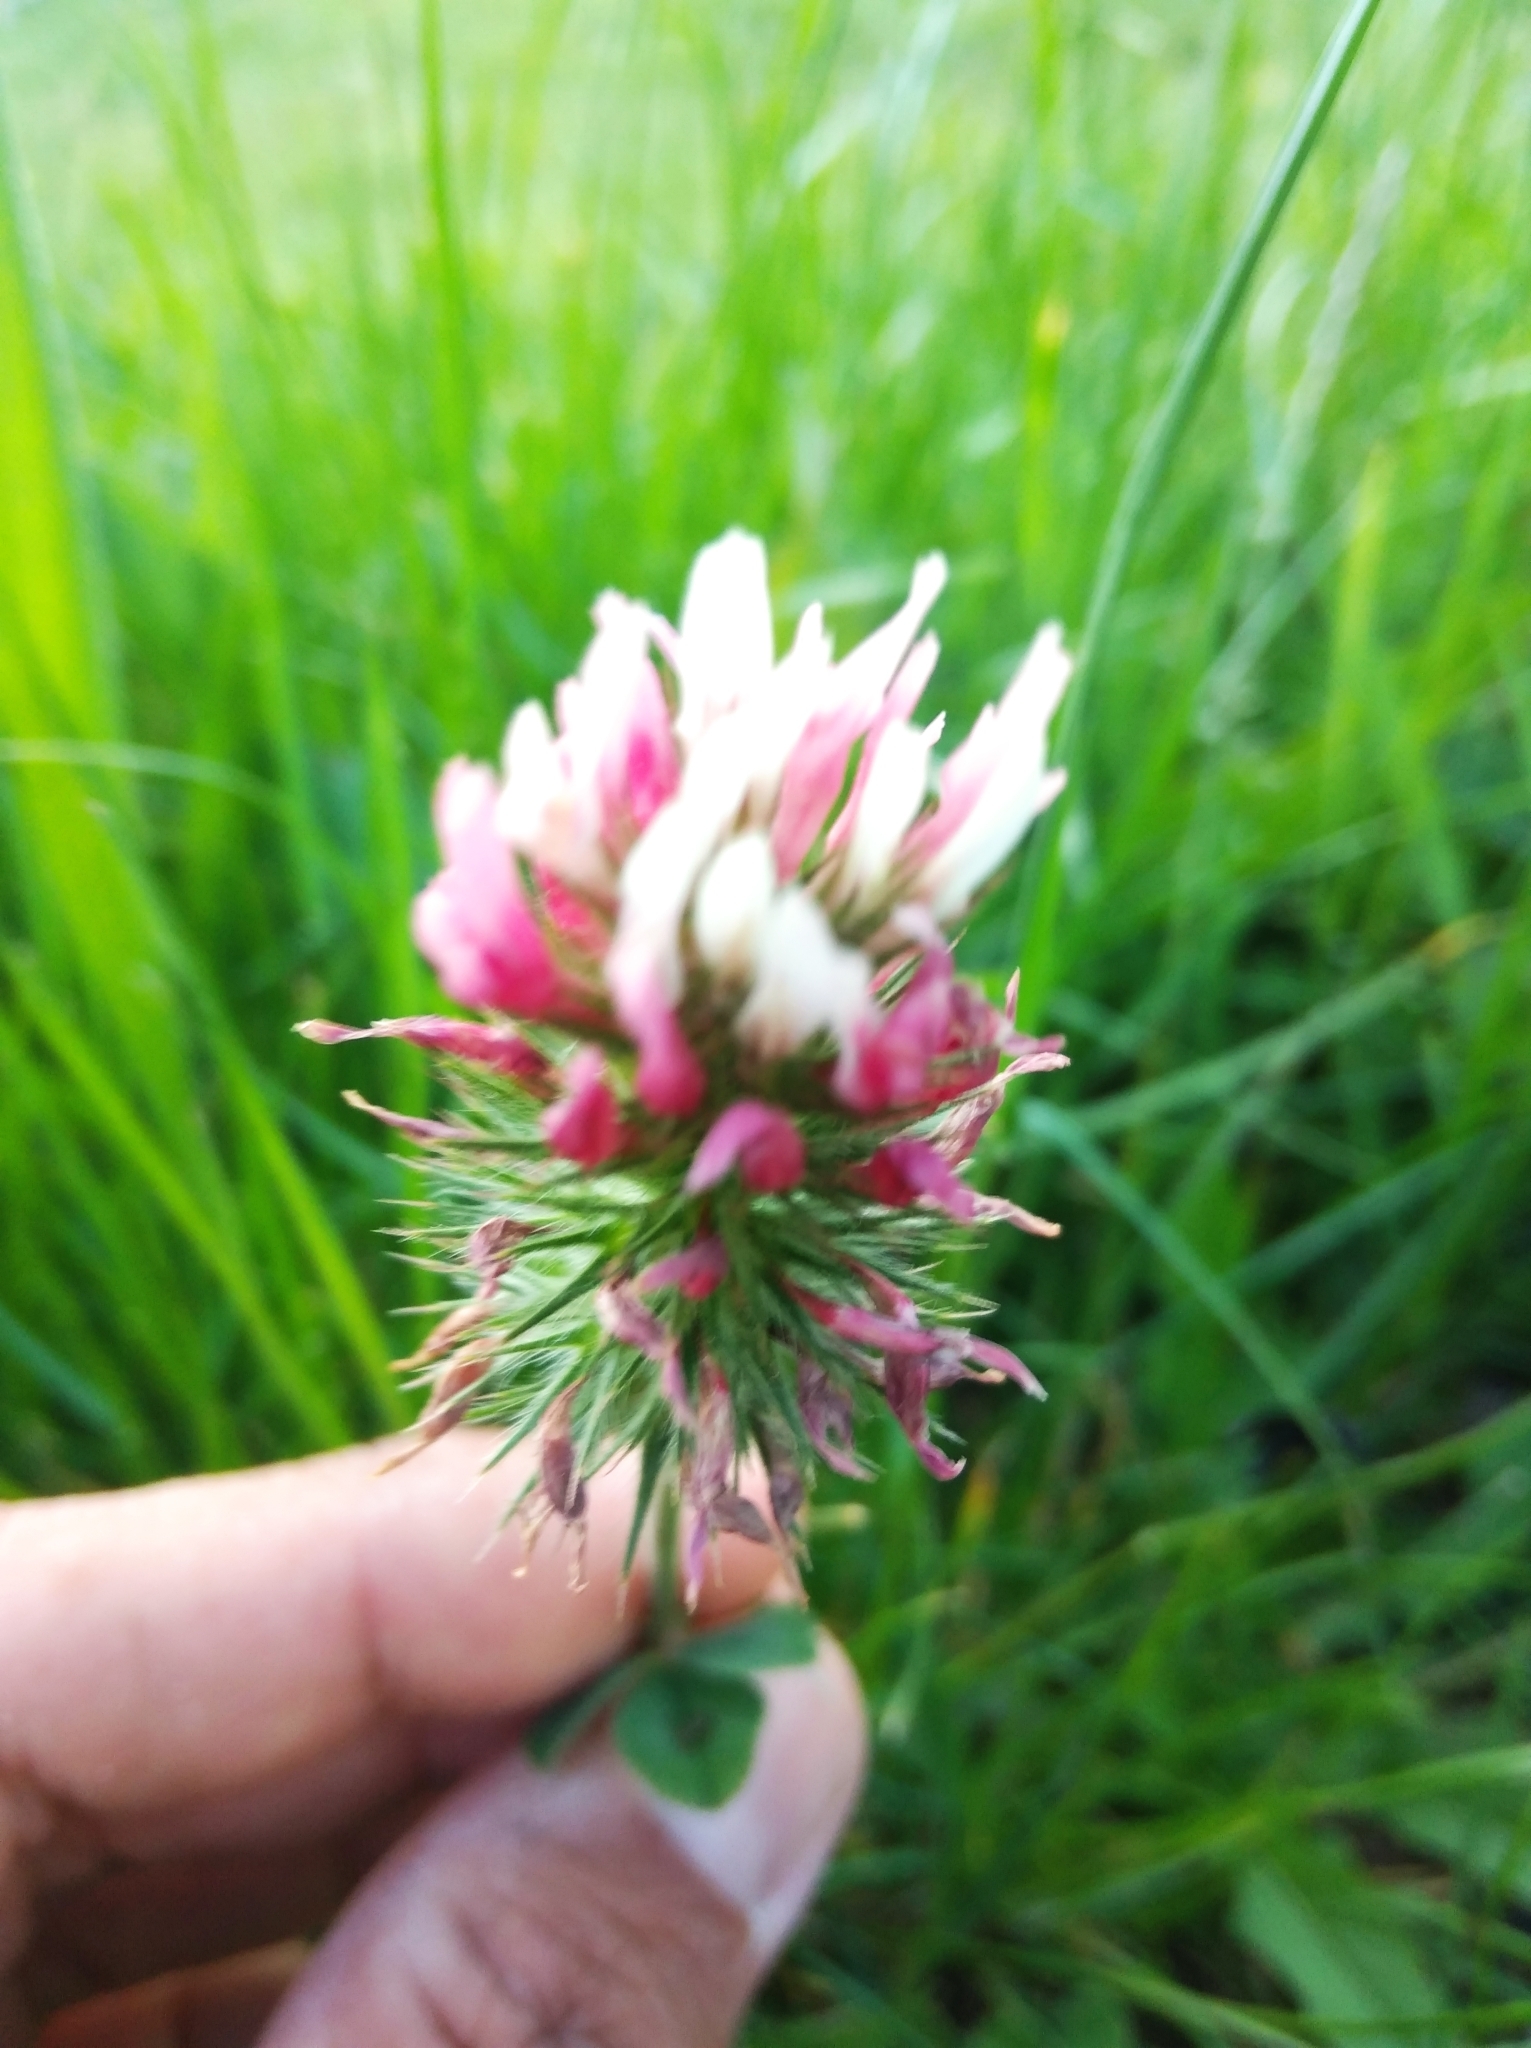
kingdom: Plantae
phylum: Tracheophyta
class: Magnoliopsida
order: Fabales
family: Fabaceae
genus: Trifolium
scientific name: Trifolium incarnatum
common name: Crimson clover
